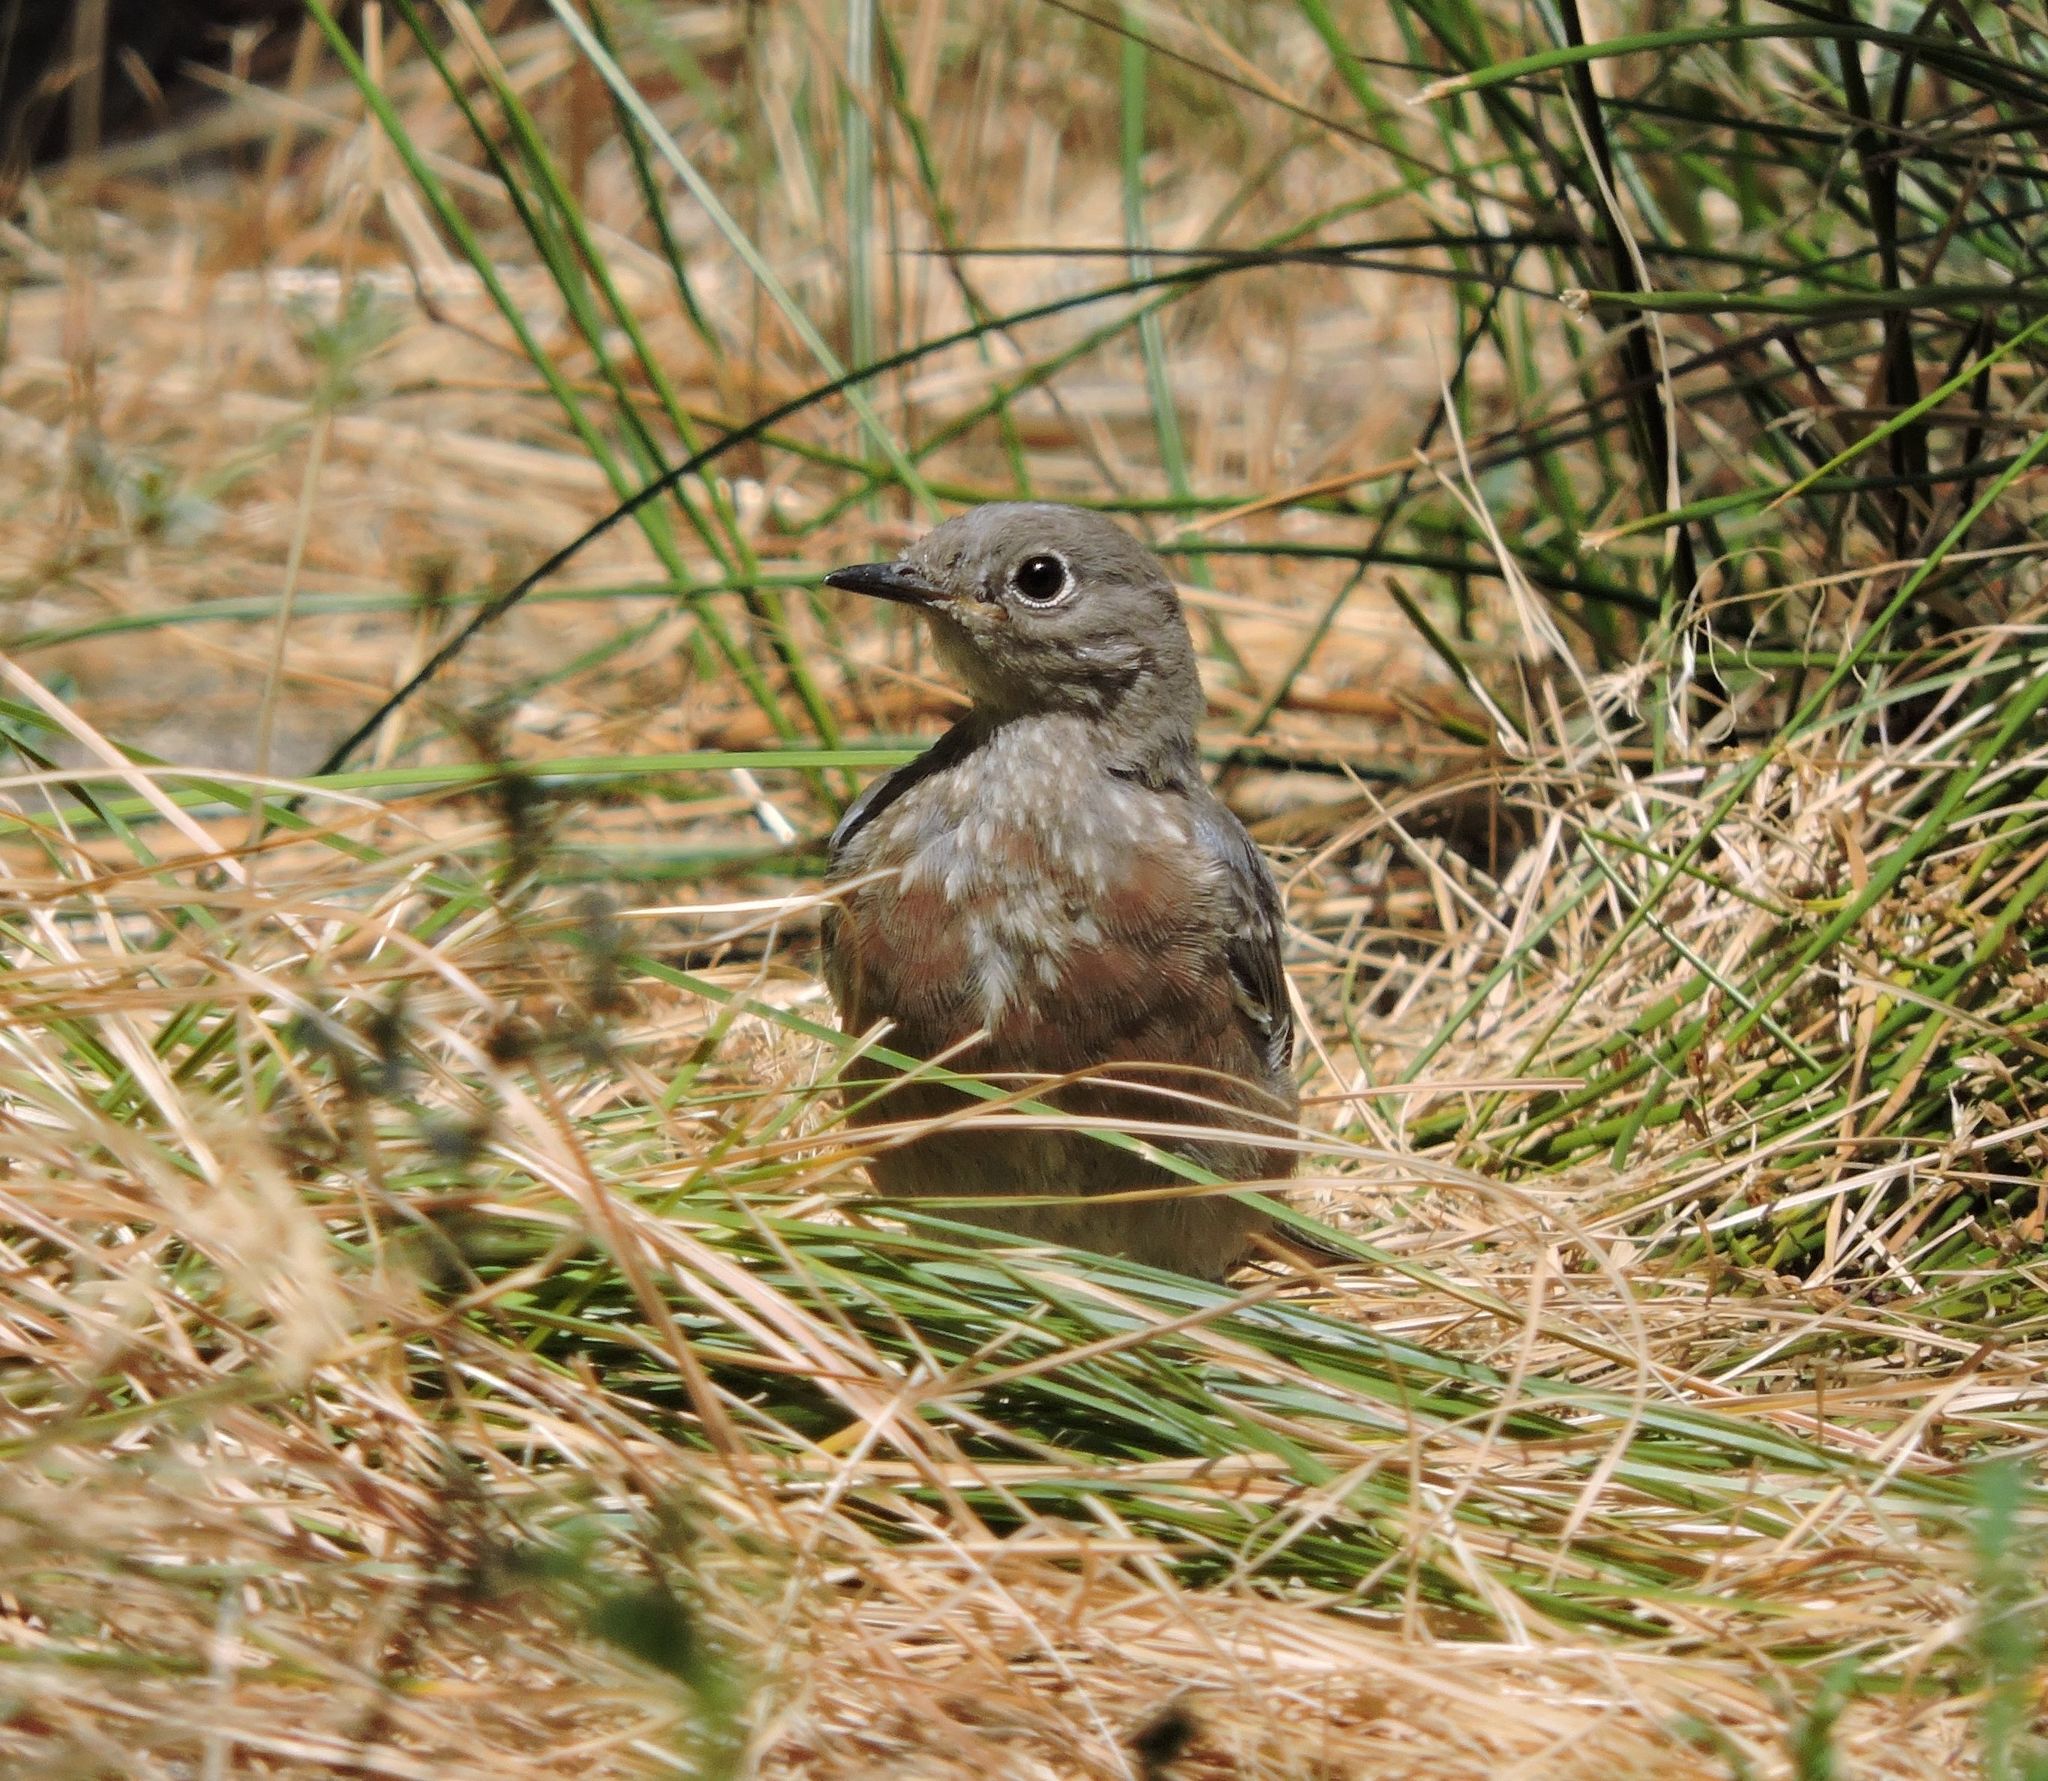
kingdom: Animalia
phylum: Chordata
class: Aves
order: Passeriformes
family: Turdidae
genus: Sialia
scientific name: Sialia mexicana
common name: Western bluebird
